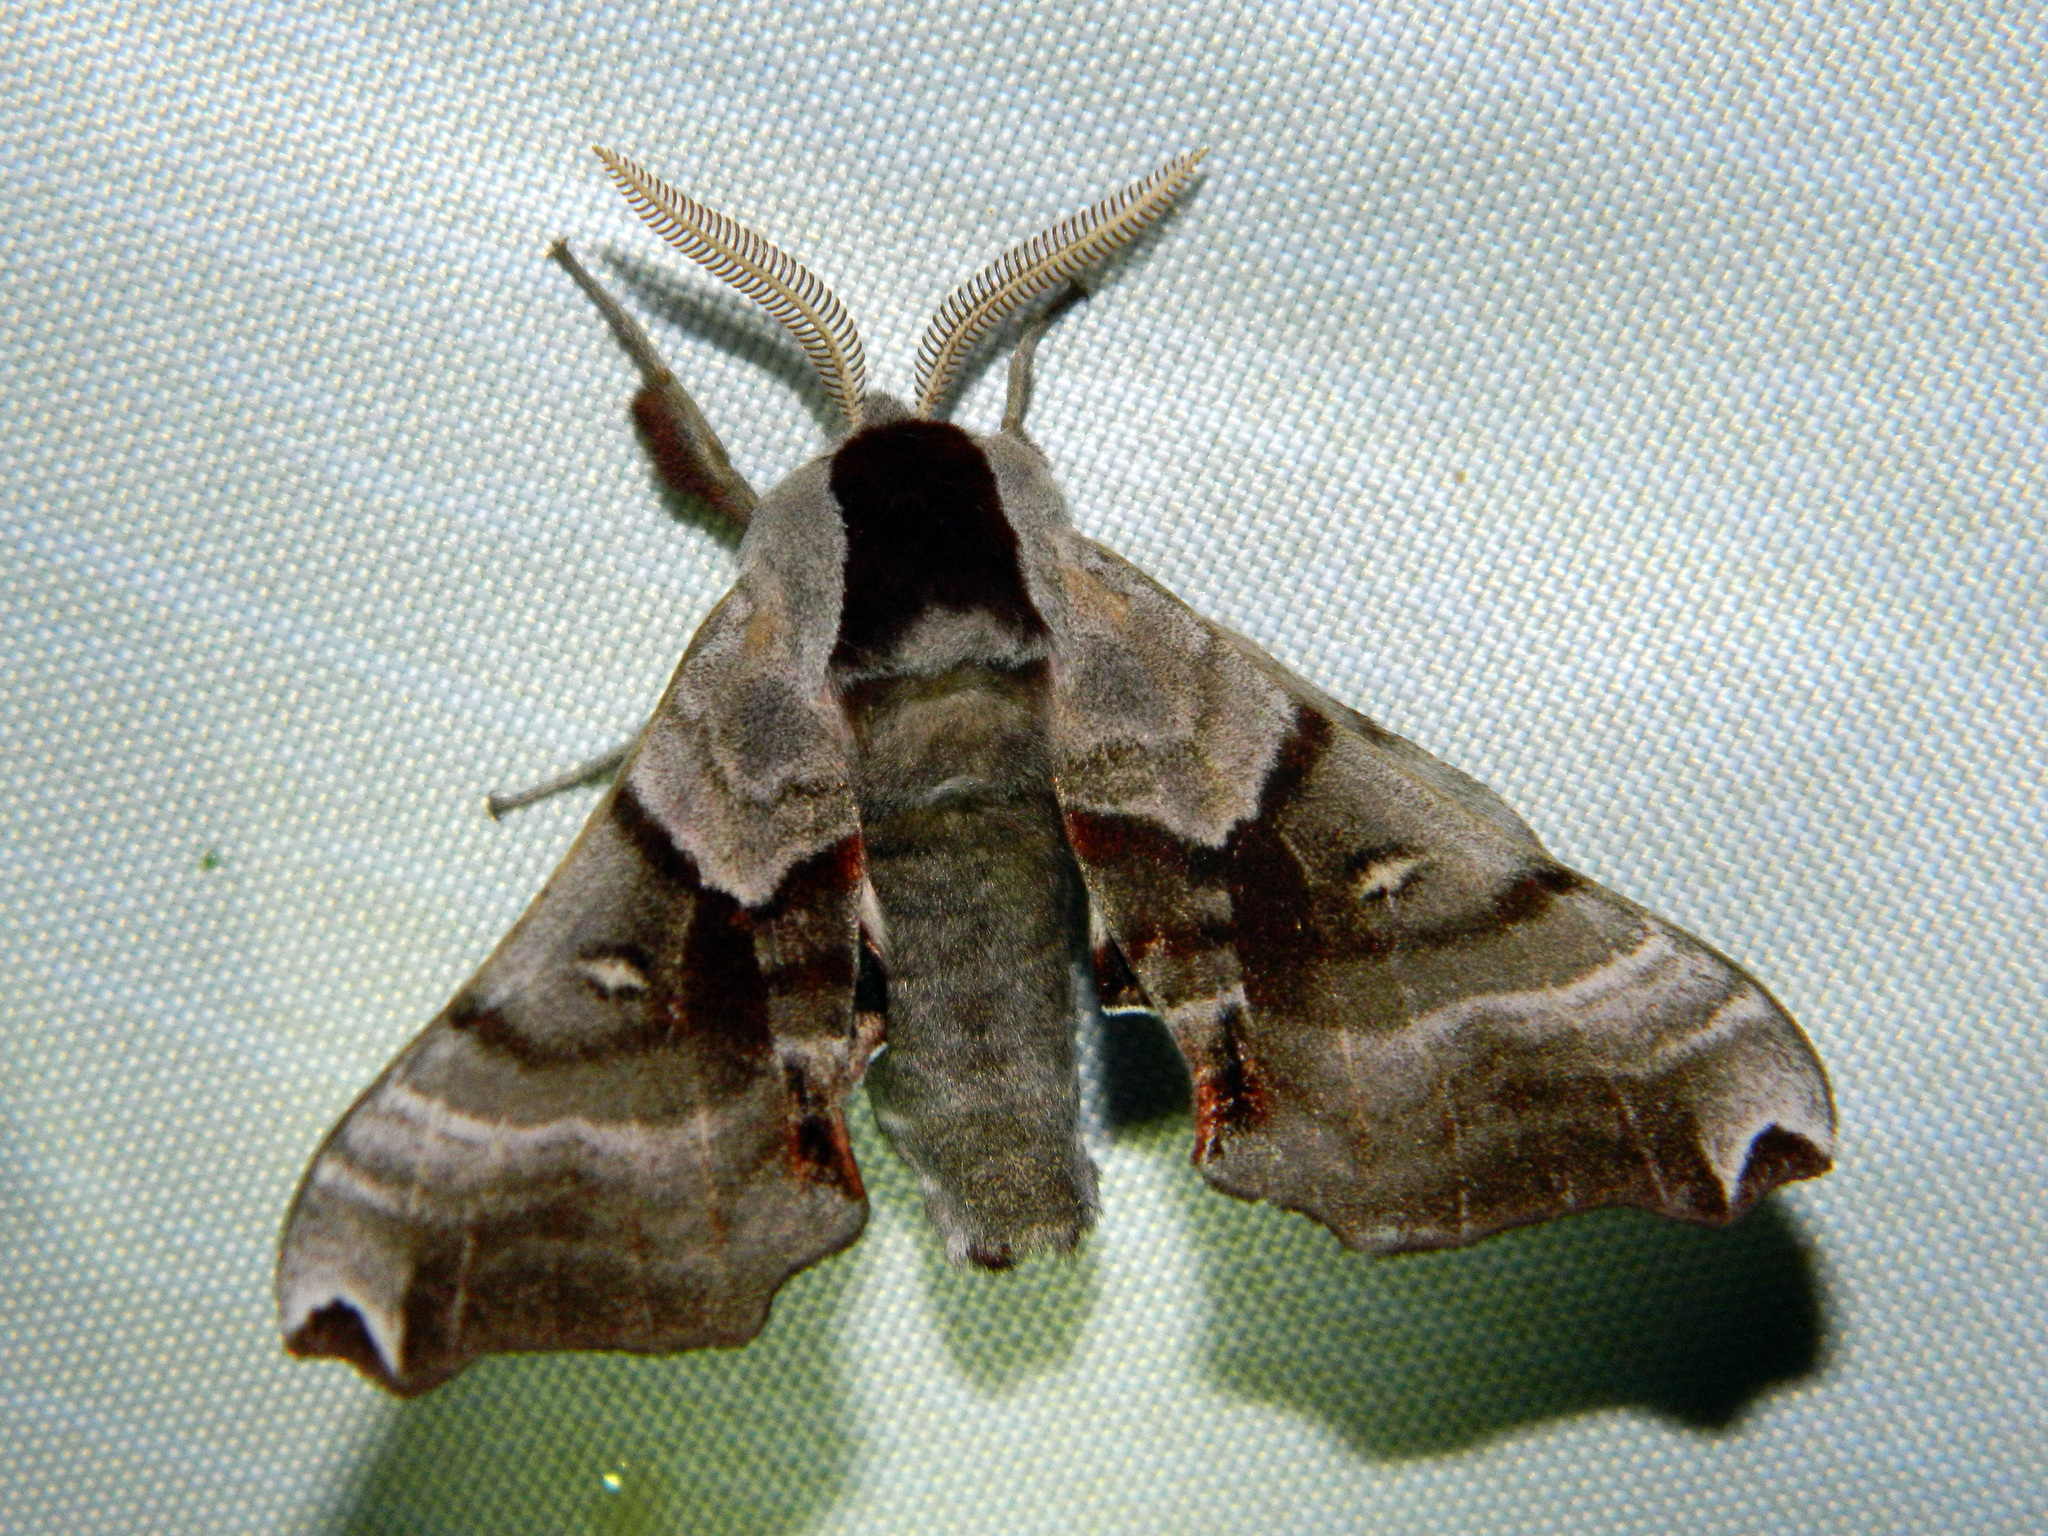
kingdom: Animalia
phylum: Arthropoda
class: Insecta
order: Lepidoptera
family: Sphingidae
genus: Smerinthus
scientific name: Smerinthus jamaicensis
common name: Twin spotted sphinx
